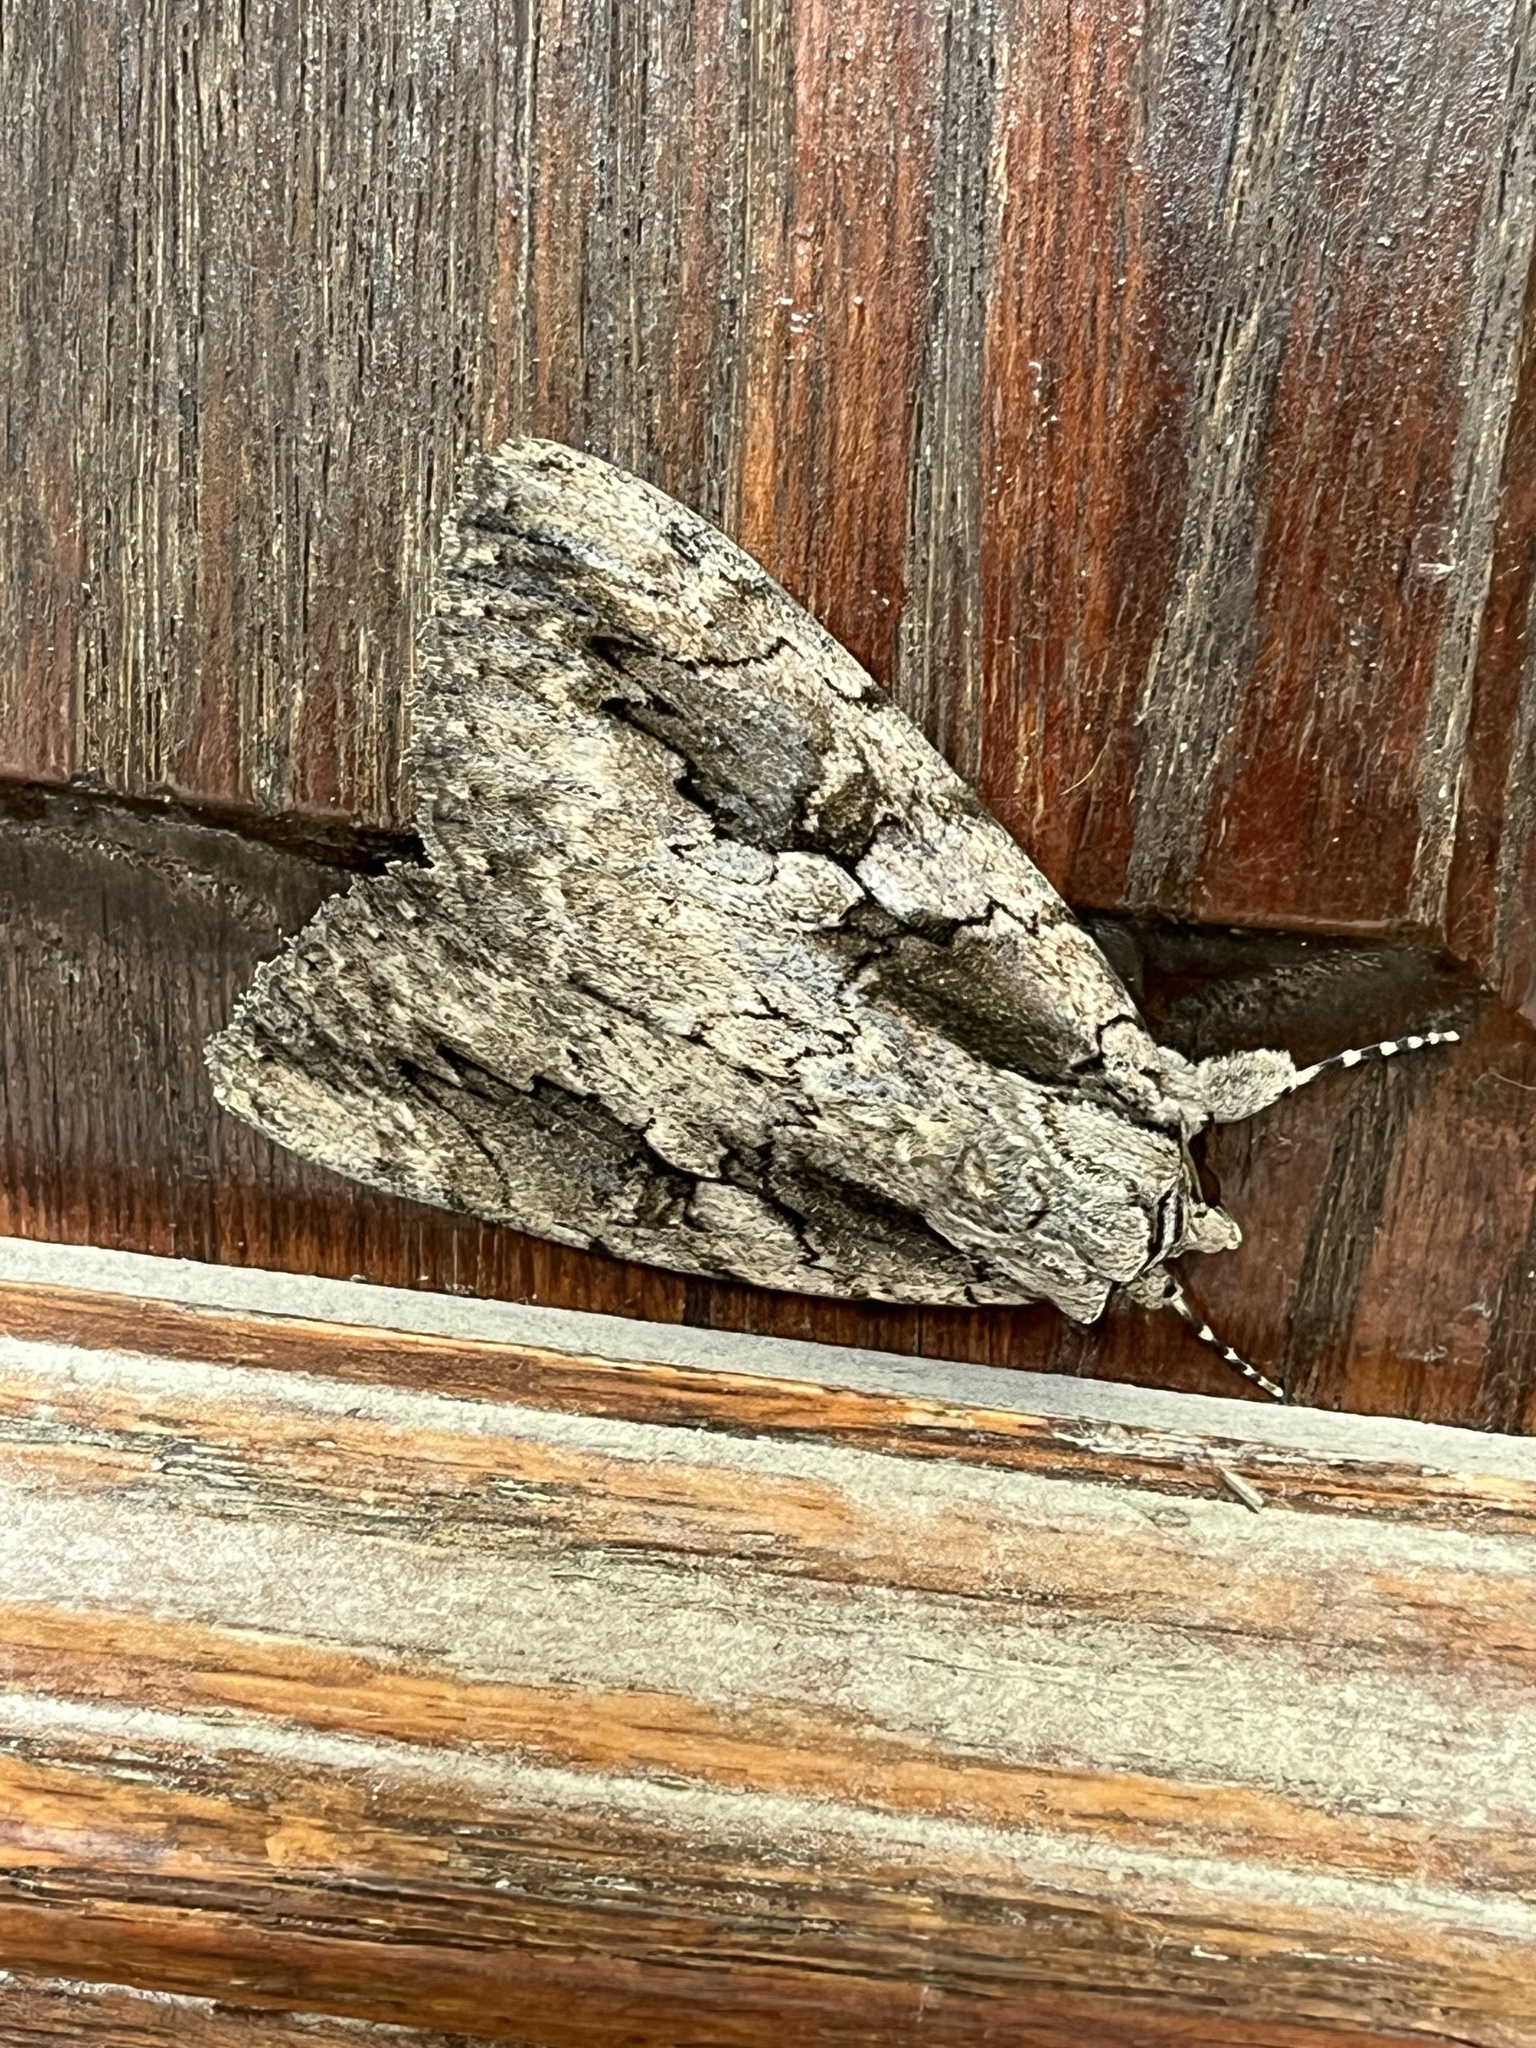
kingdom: Animalia
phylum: Arthropoda
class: Insecta
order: Lepidoptera
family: Erebidae
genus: Catocala
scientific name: Catocala amatrix
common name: Sweetheart underwing
